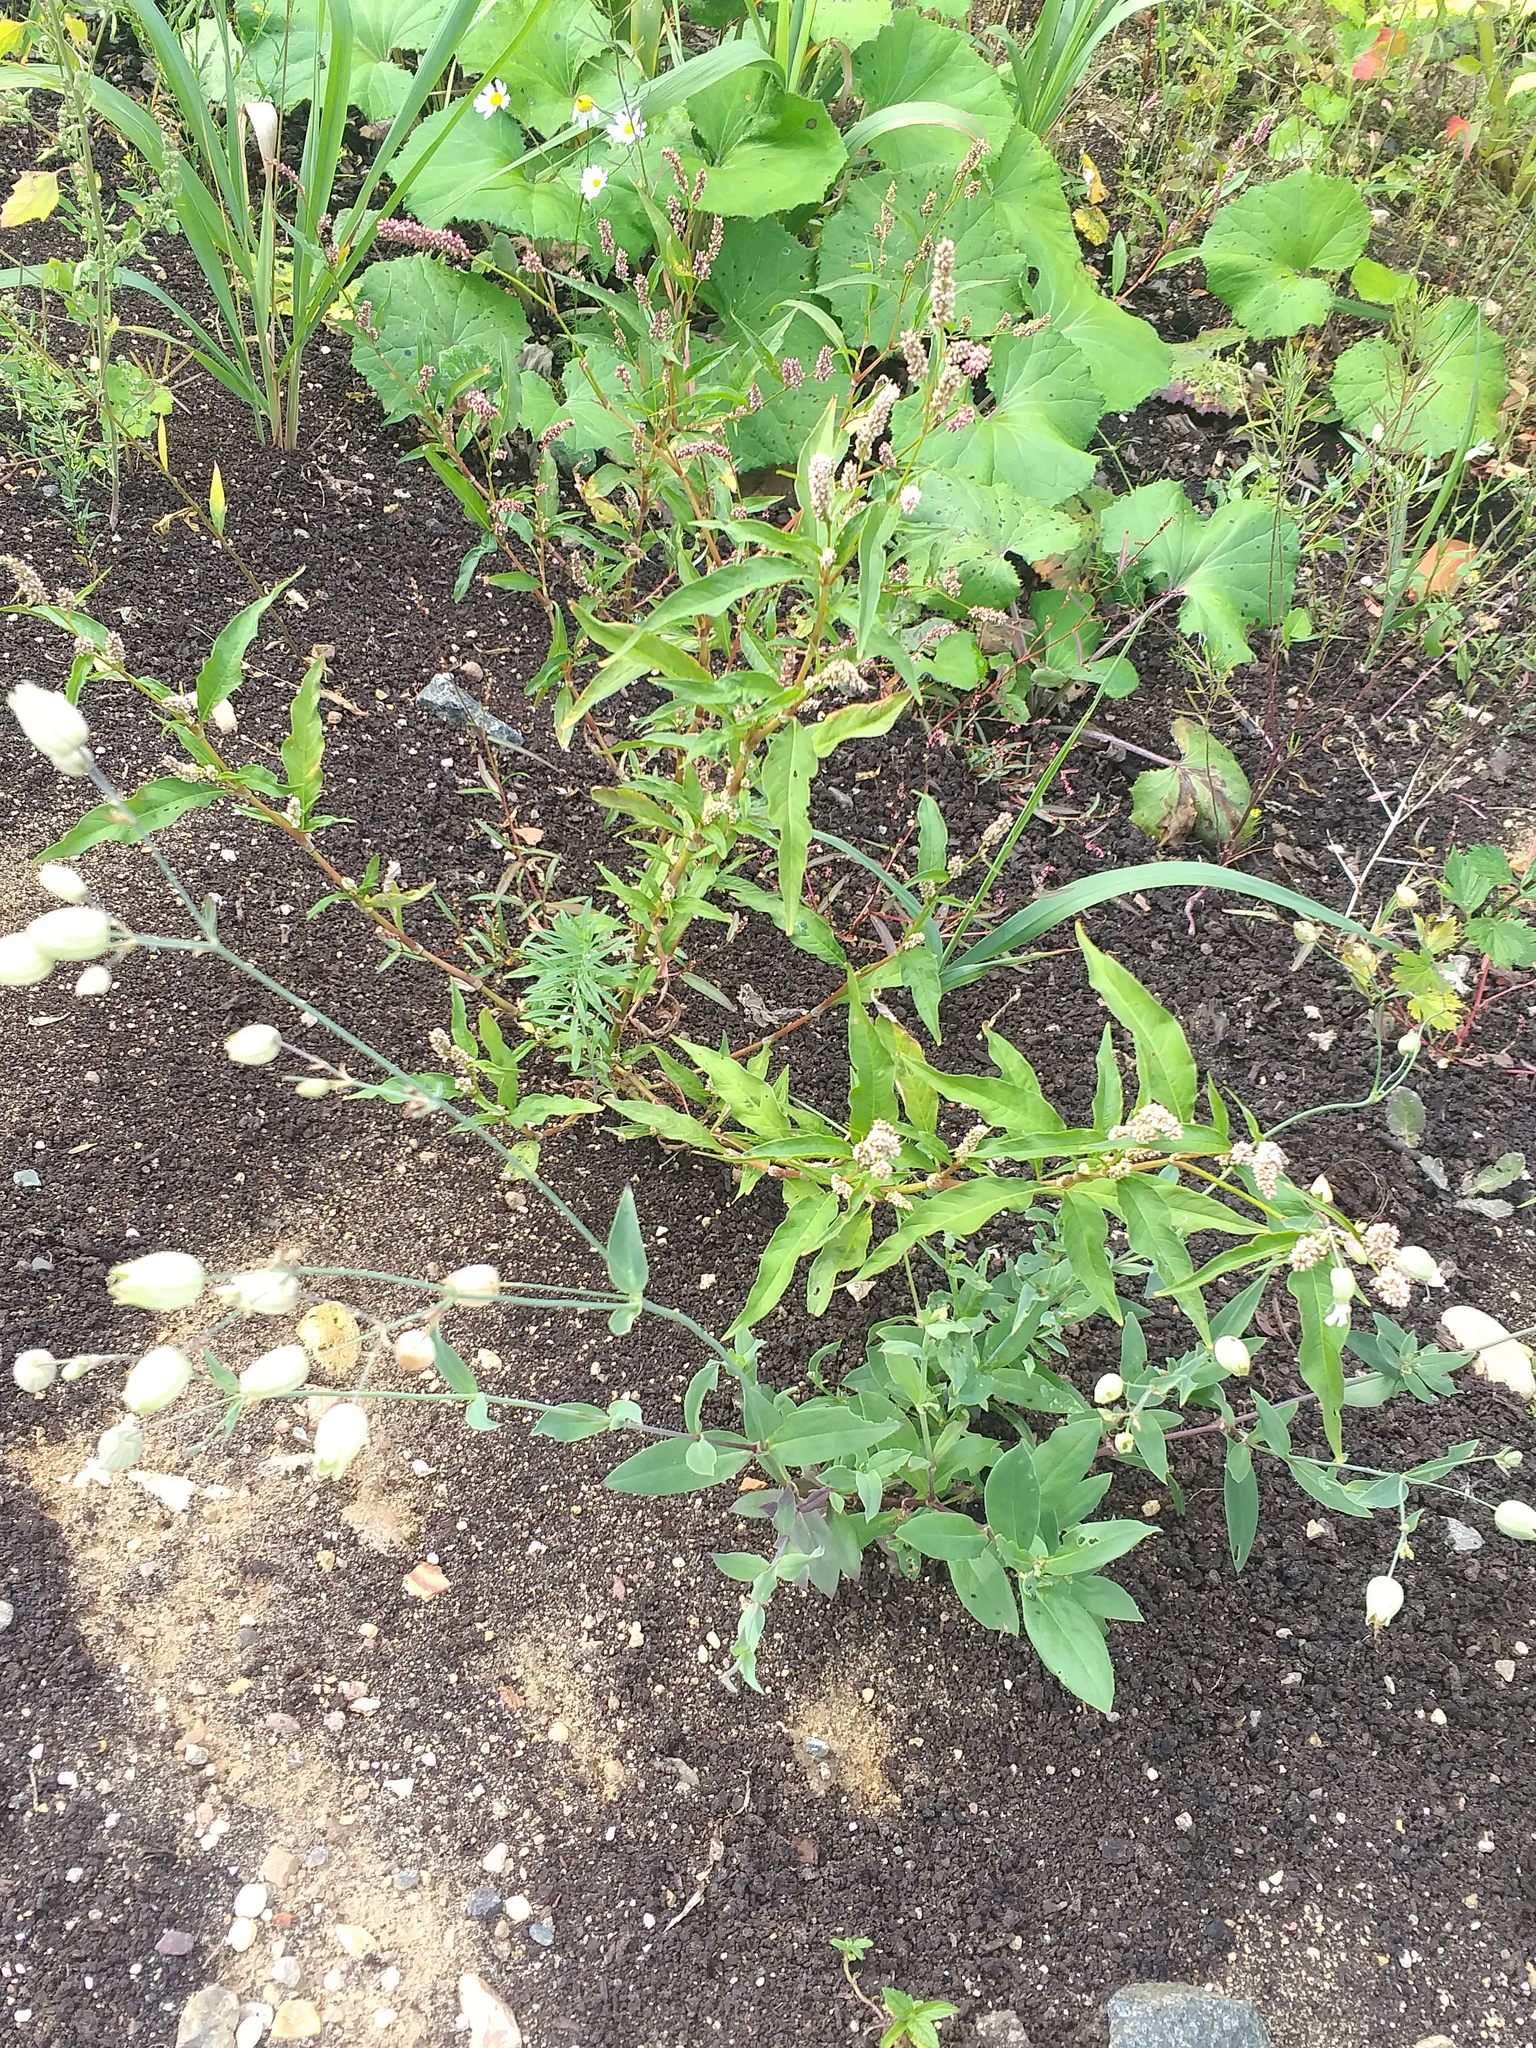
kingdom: Plantae
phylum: Tracheophyta
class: Magnoliopsida
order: Caryophyllales
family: Caryophyllaceae
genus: Silene
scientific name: Silene vulgaris
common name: Bladder campion
